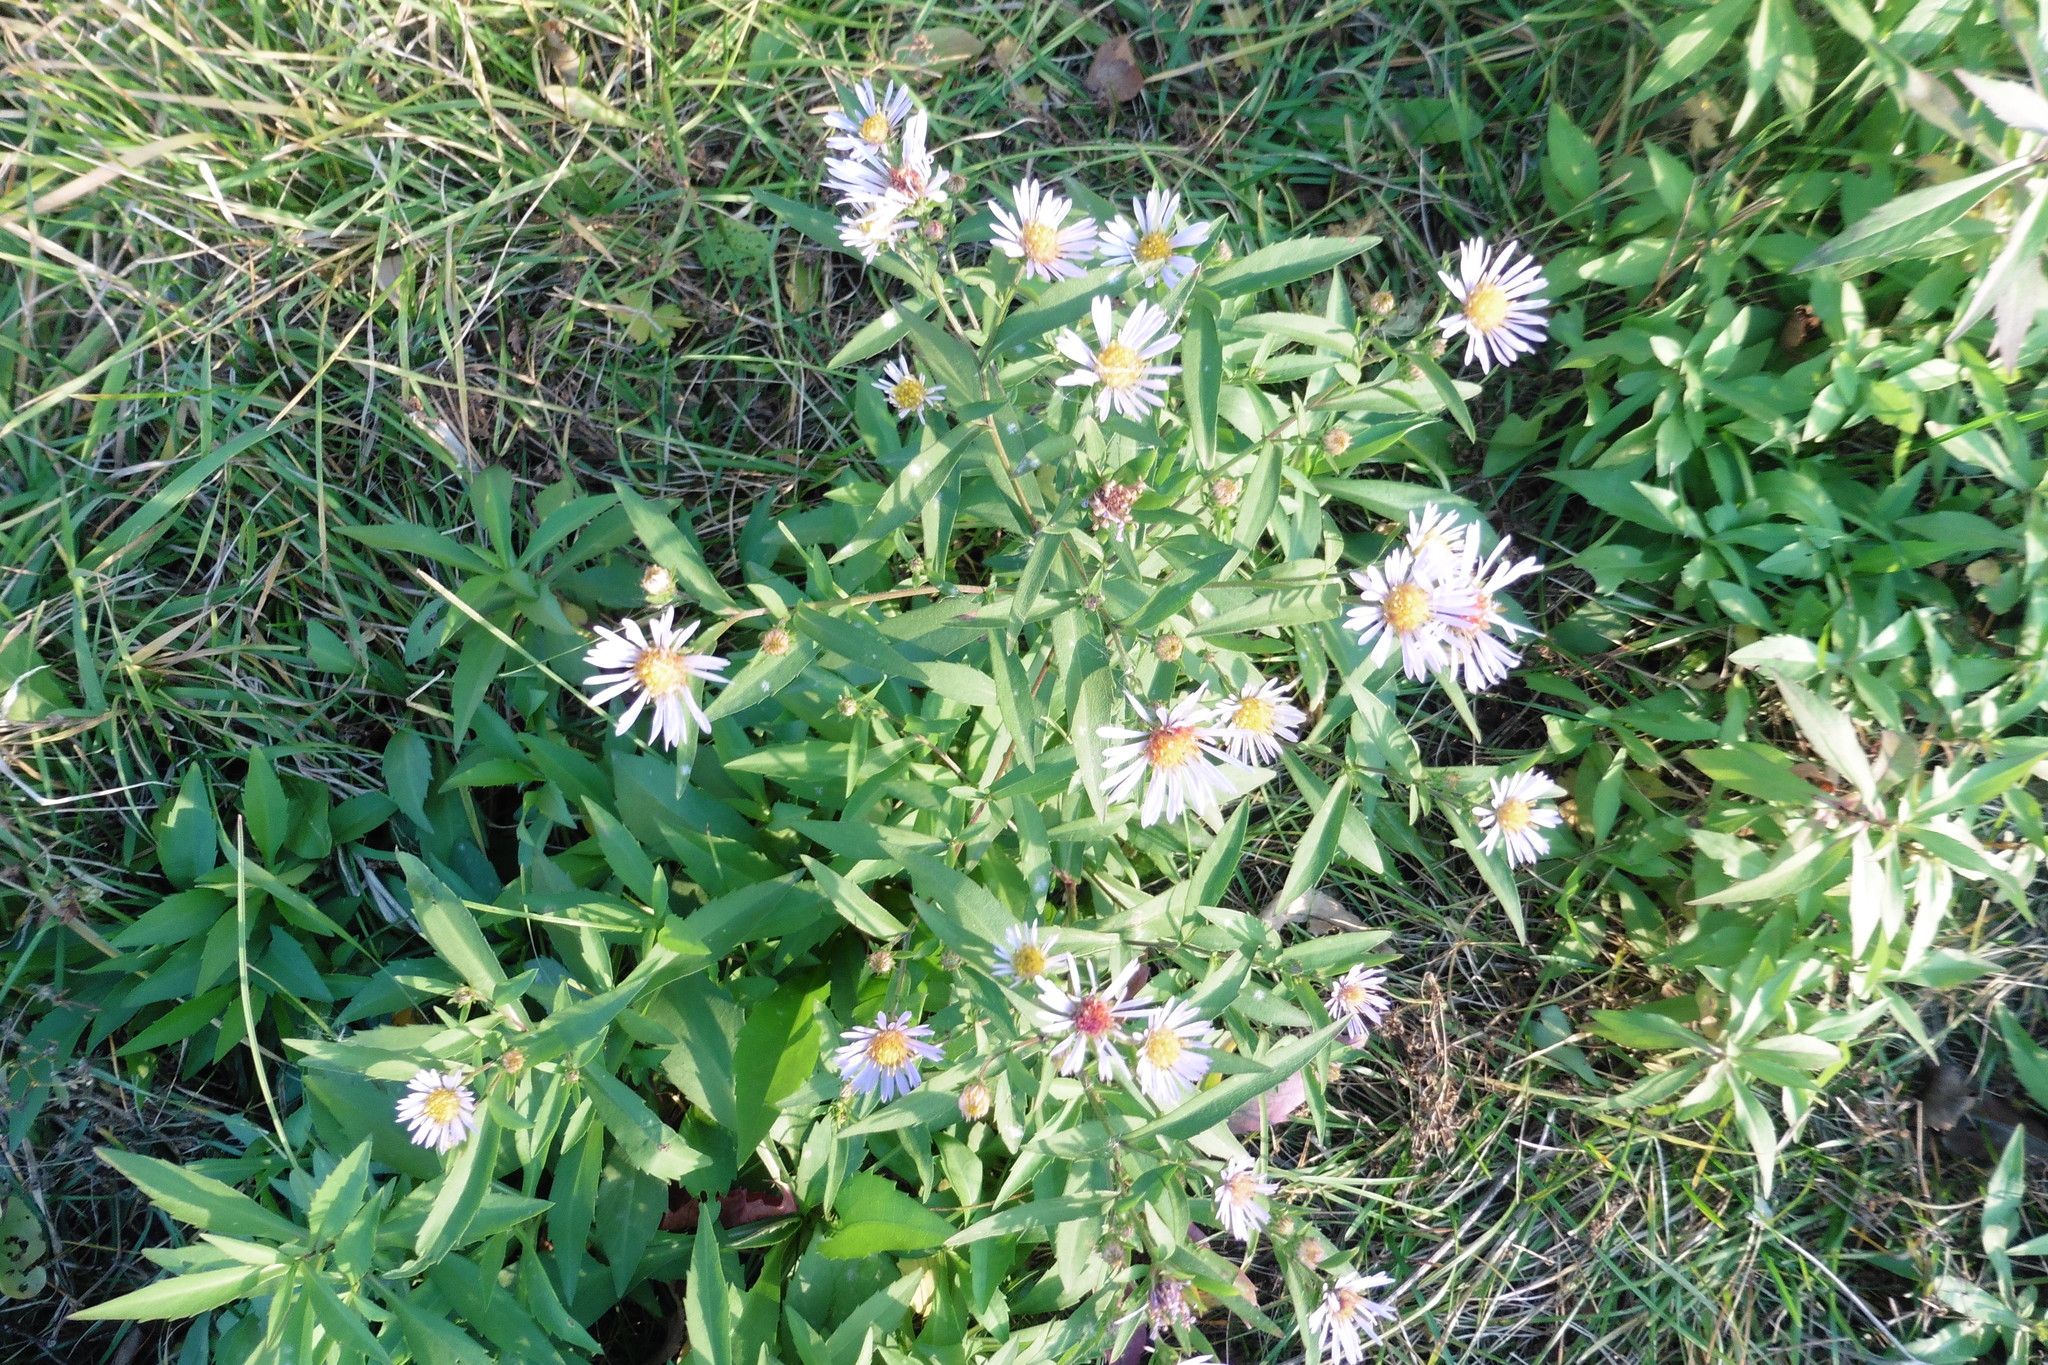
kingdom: Plantae
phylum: Tracheophyta
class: Magnoliopsida
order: Asterales
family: Asteraceae
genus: Symphyotrichum
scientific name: Symphyotrichum novi-belgii
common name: Michaelmas daisy
